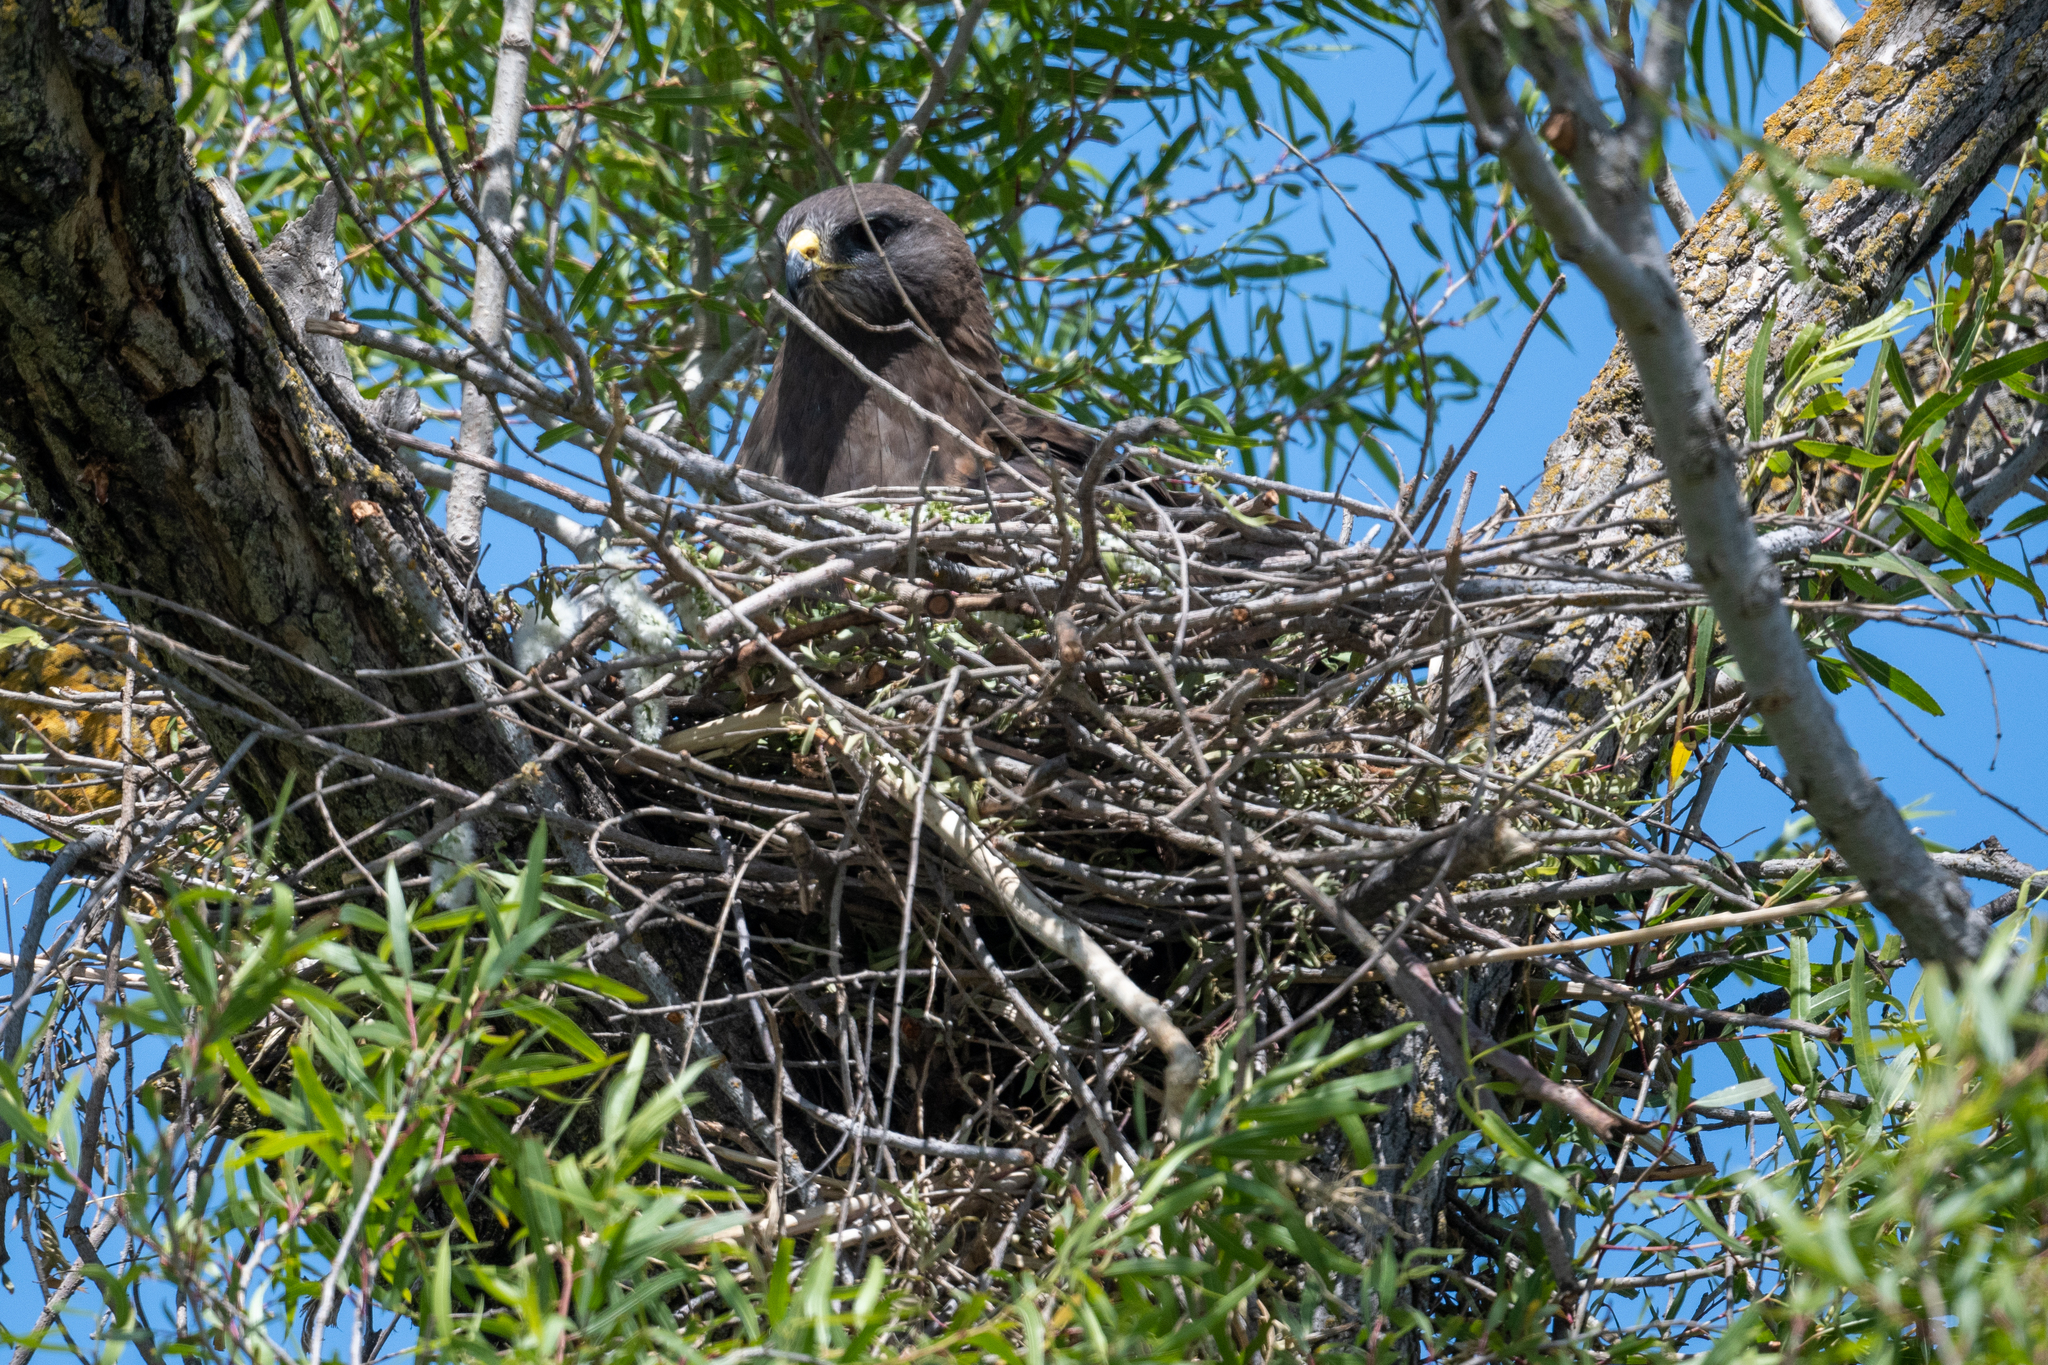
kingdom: Animalia
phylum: Chordata
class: Aves
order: Accipitriformes
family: Accipitridae
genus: Buteo
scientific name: Buteo swainsoni
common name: Swainson's hawk
